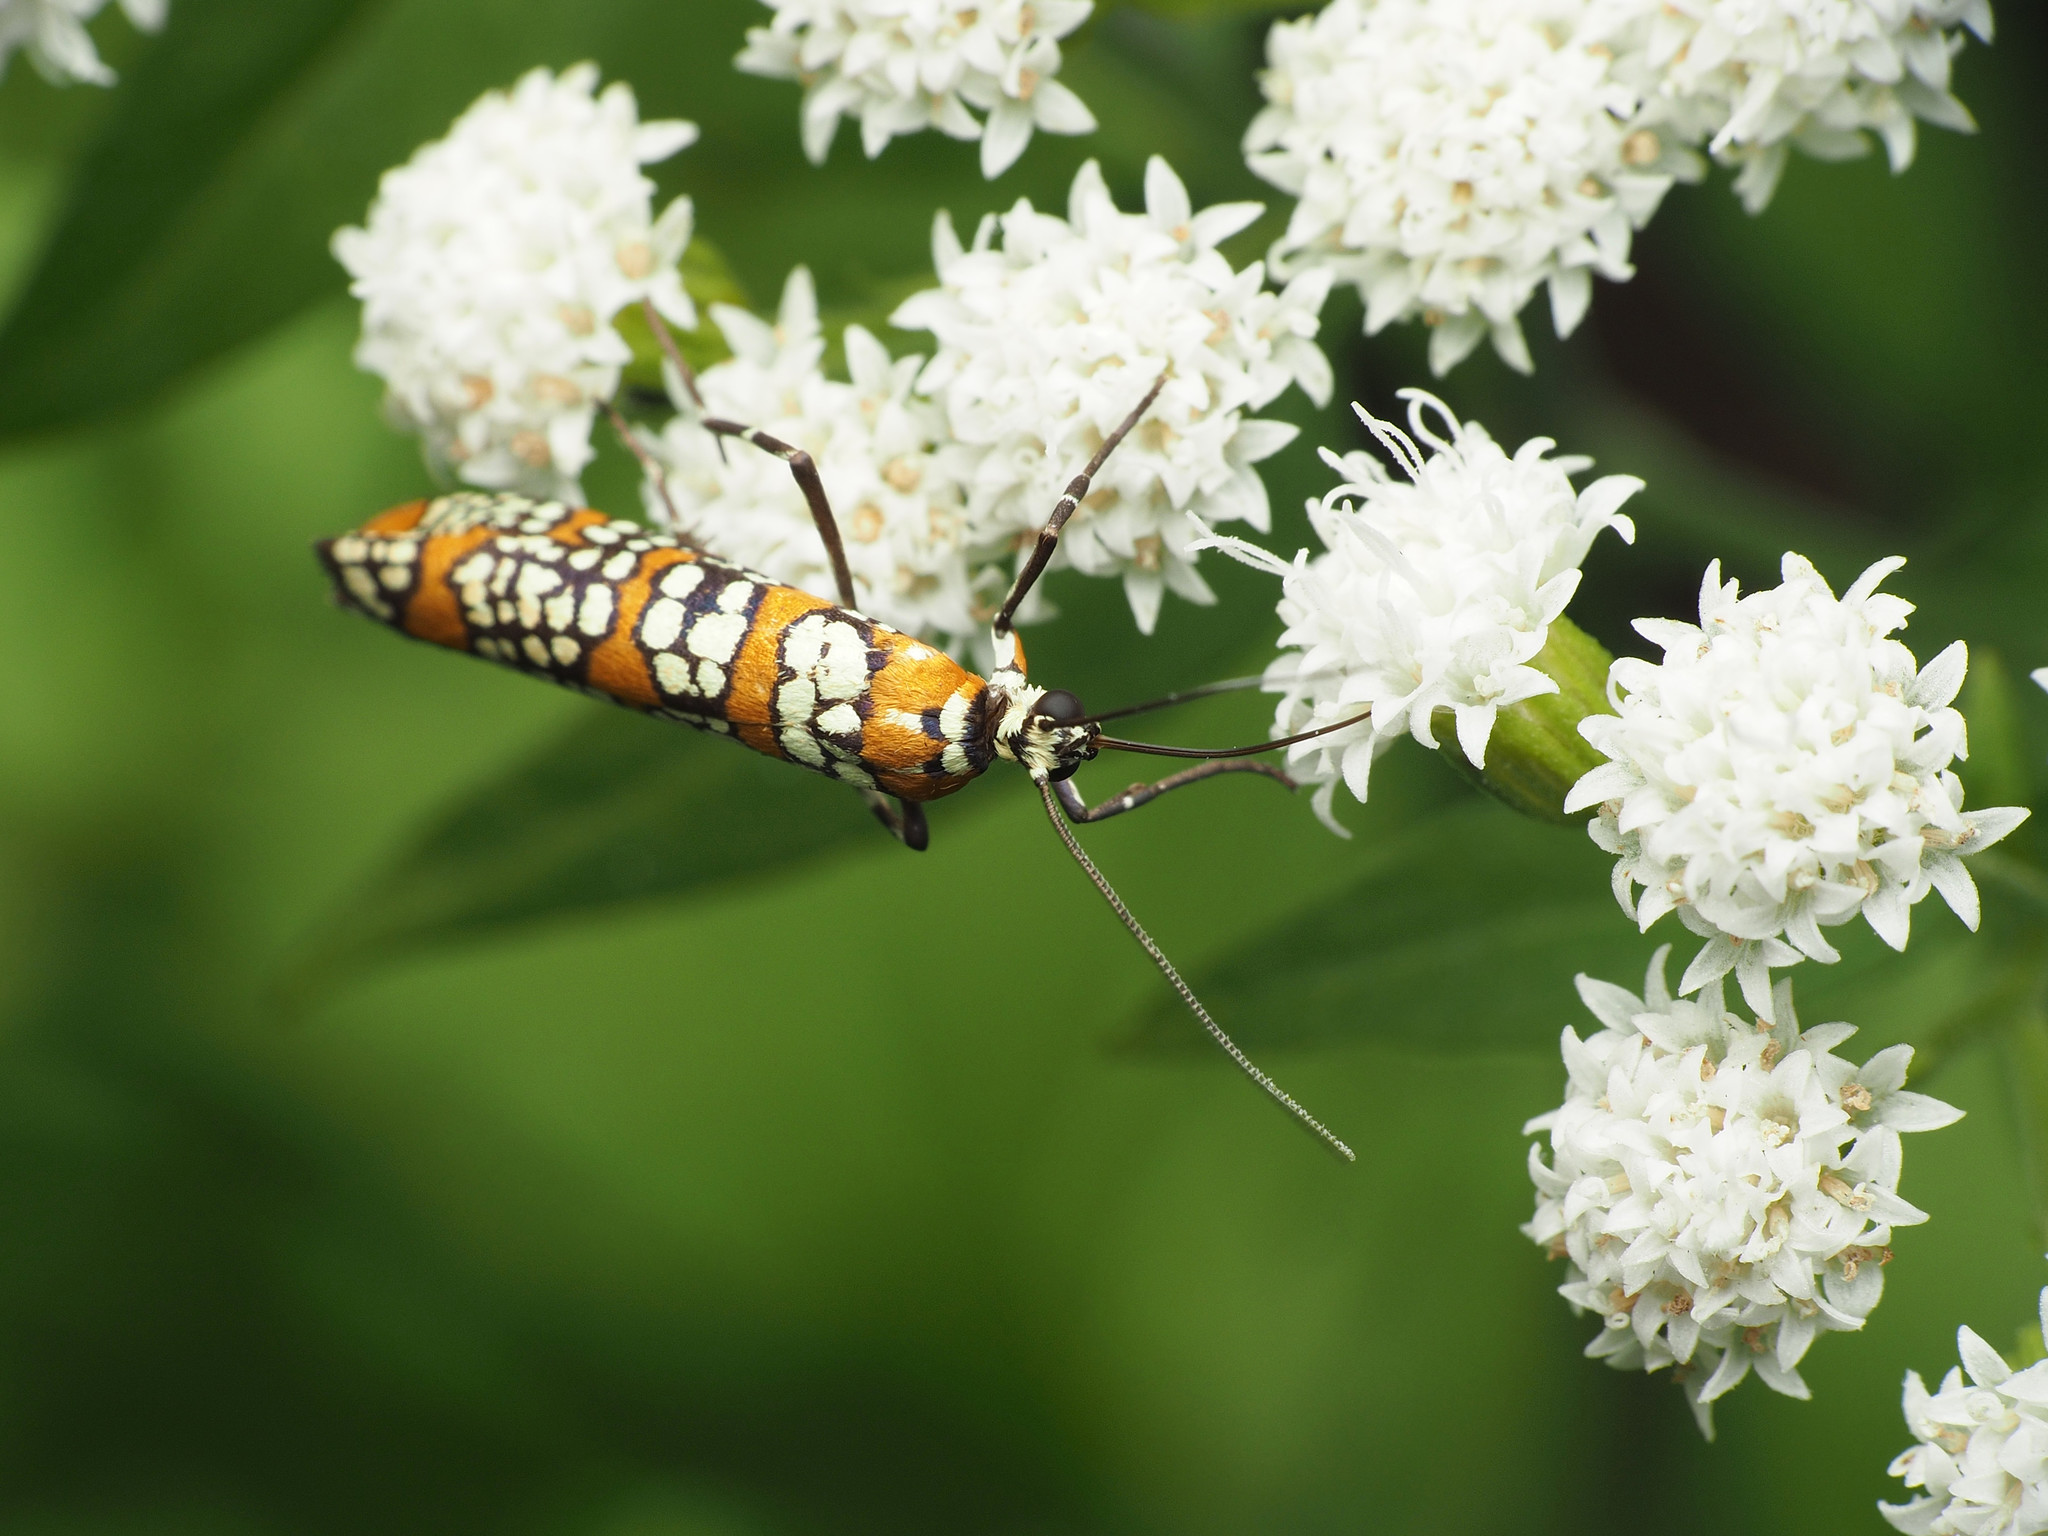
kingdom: Animalia
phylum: Arthropoda
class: Insecta
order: Lepidoptera
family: Attevidae
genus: Atteva
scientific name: Atteva punctella
